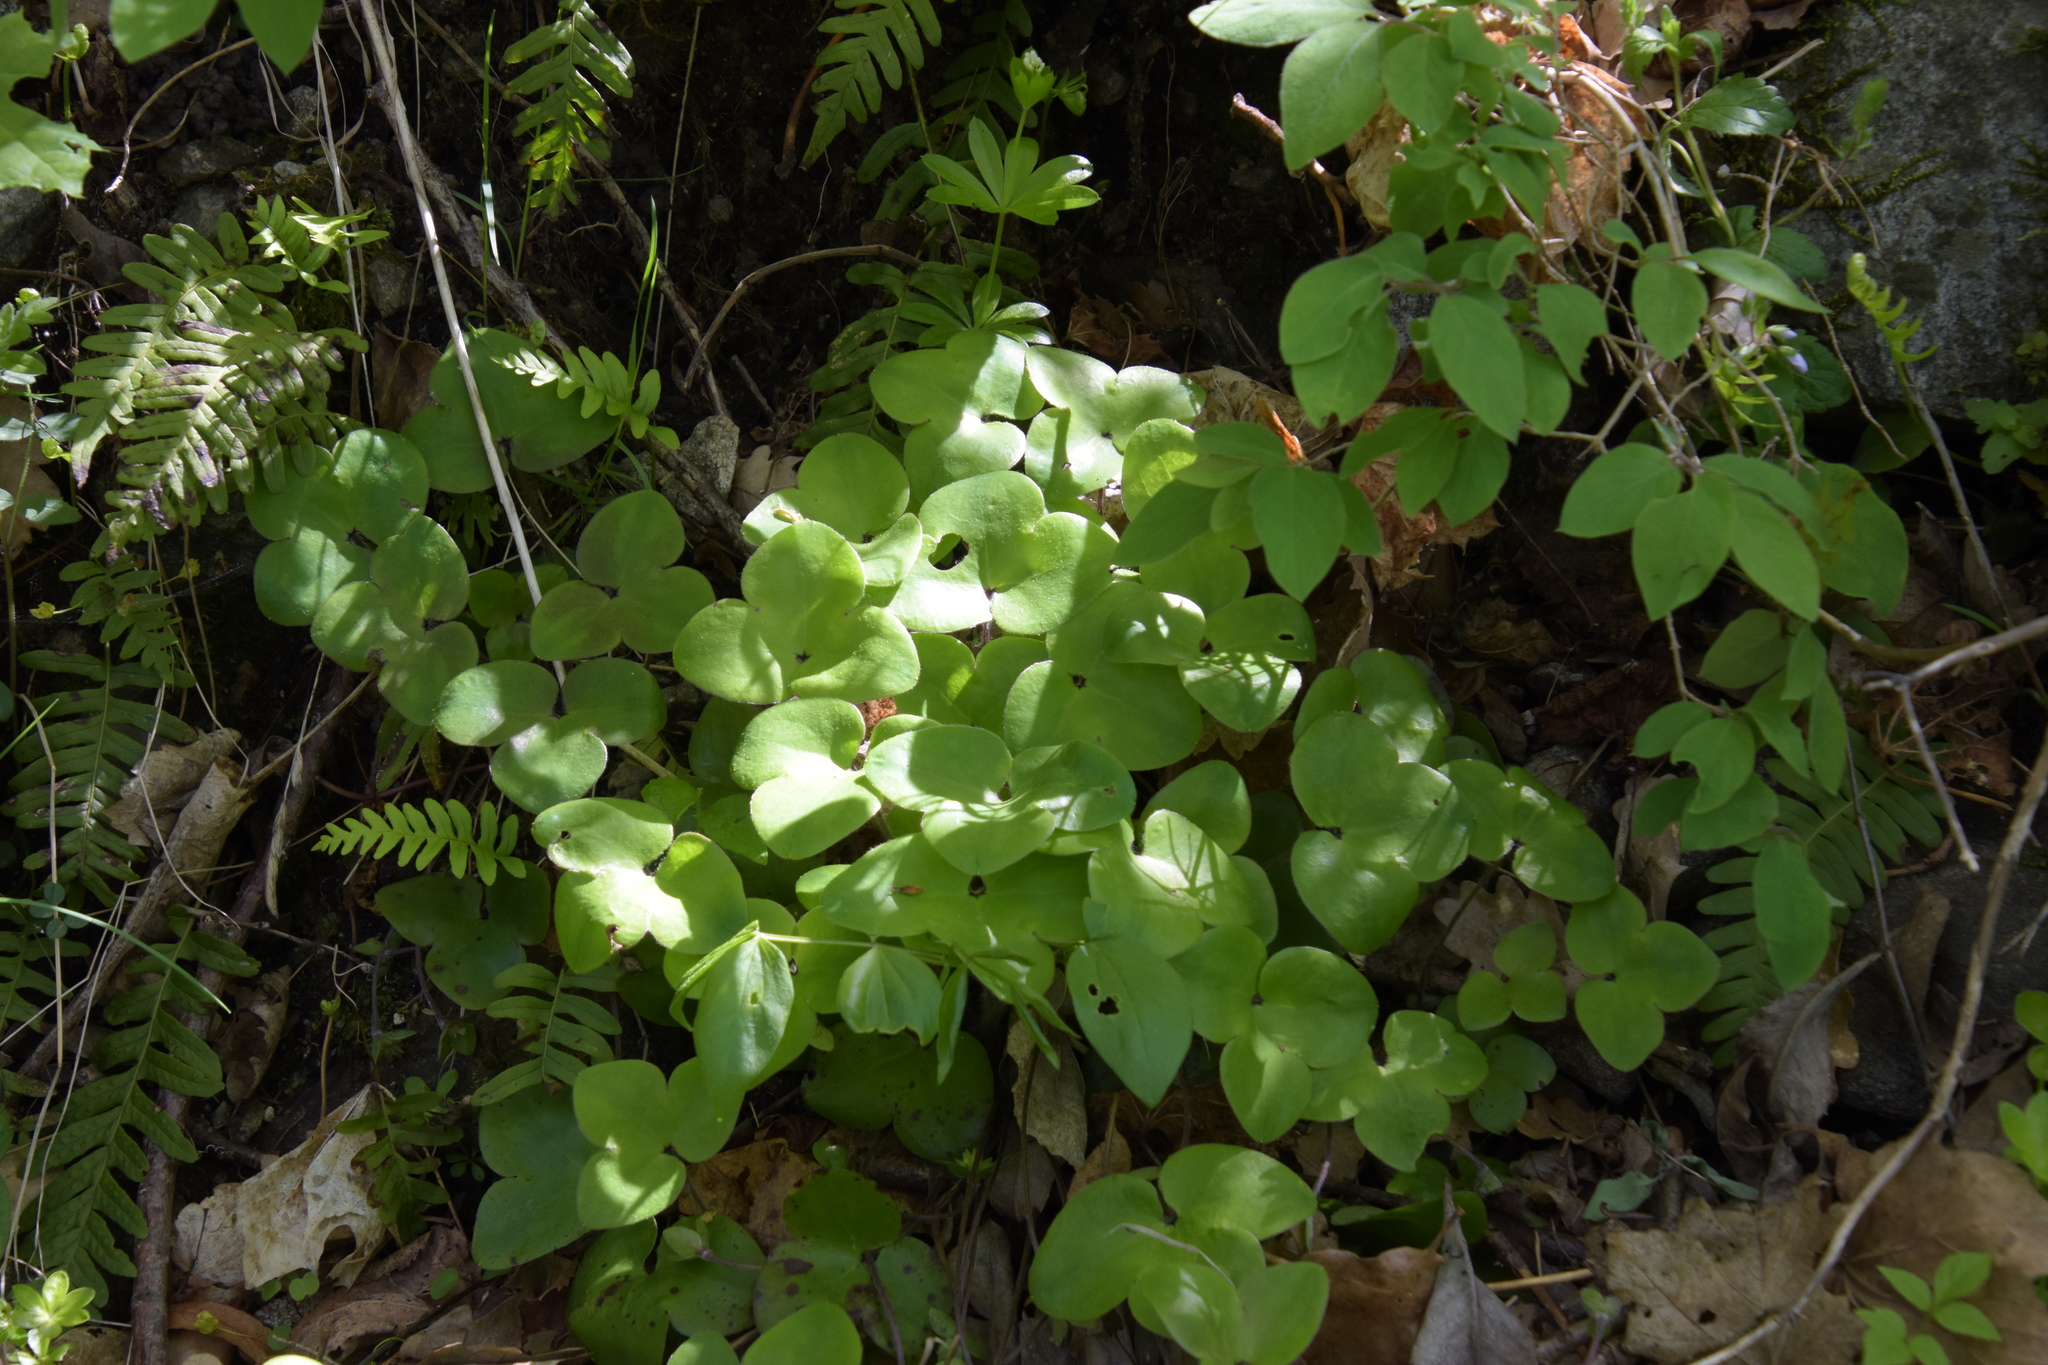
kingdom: Plantae
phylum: Tracheophyta
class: Magnoliopsida
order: Ranunculales
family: Ranunculaceae
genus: Hepatica
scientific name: Hepatica nobilis
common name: Liverleaf
